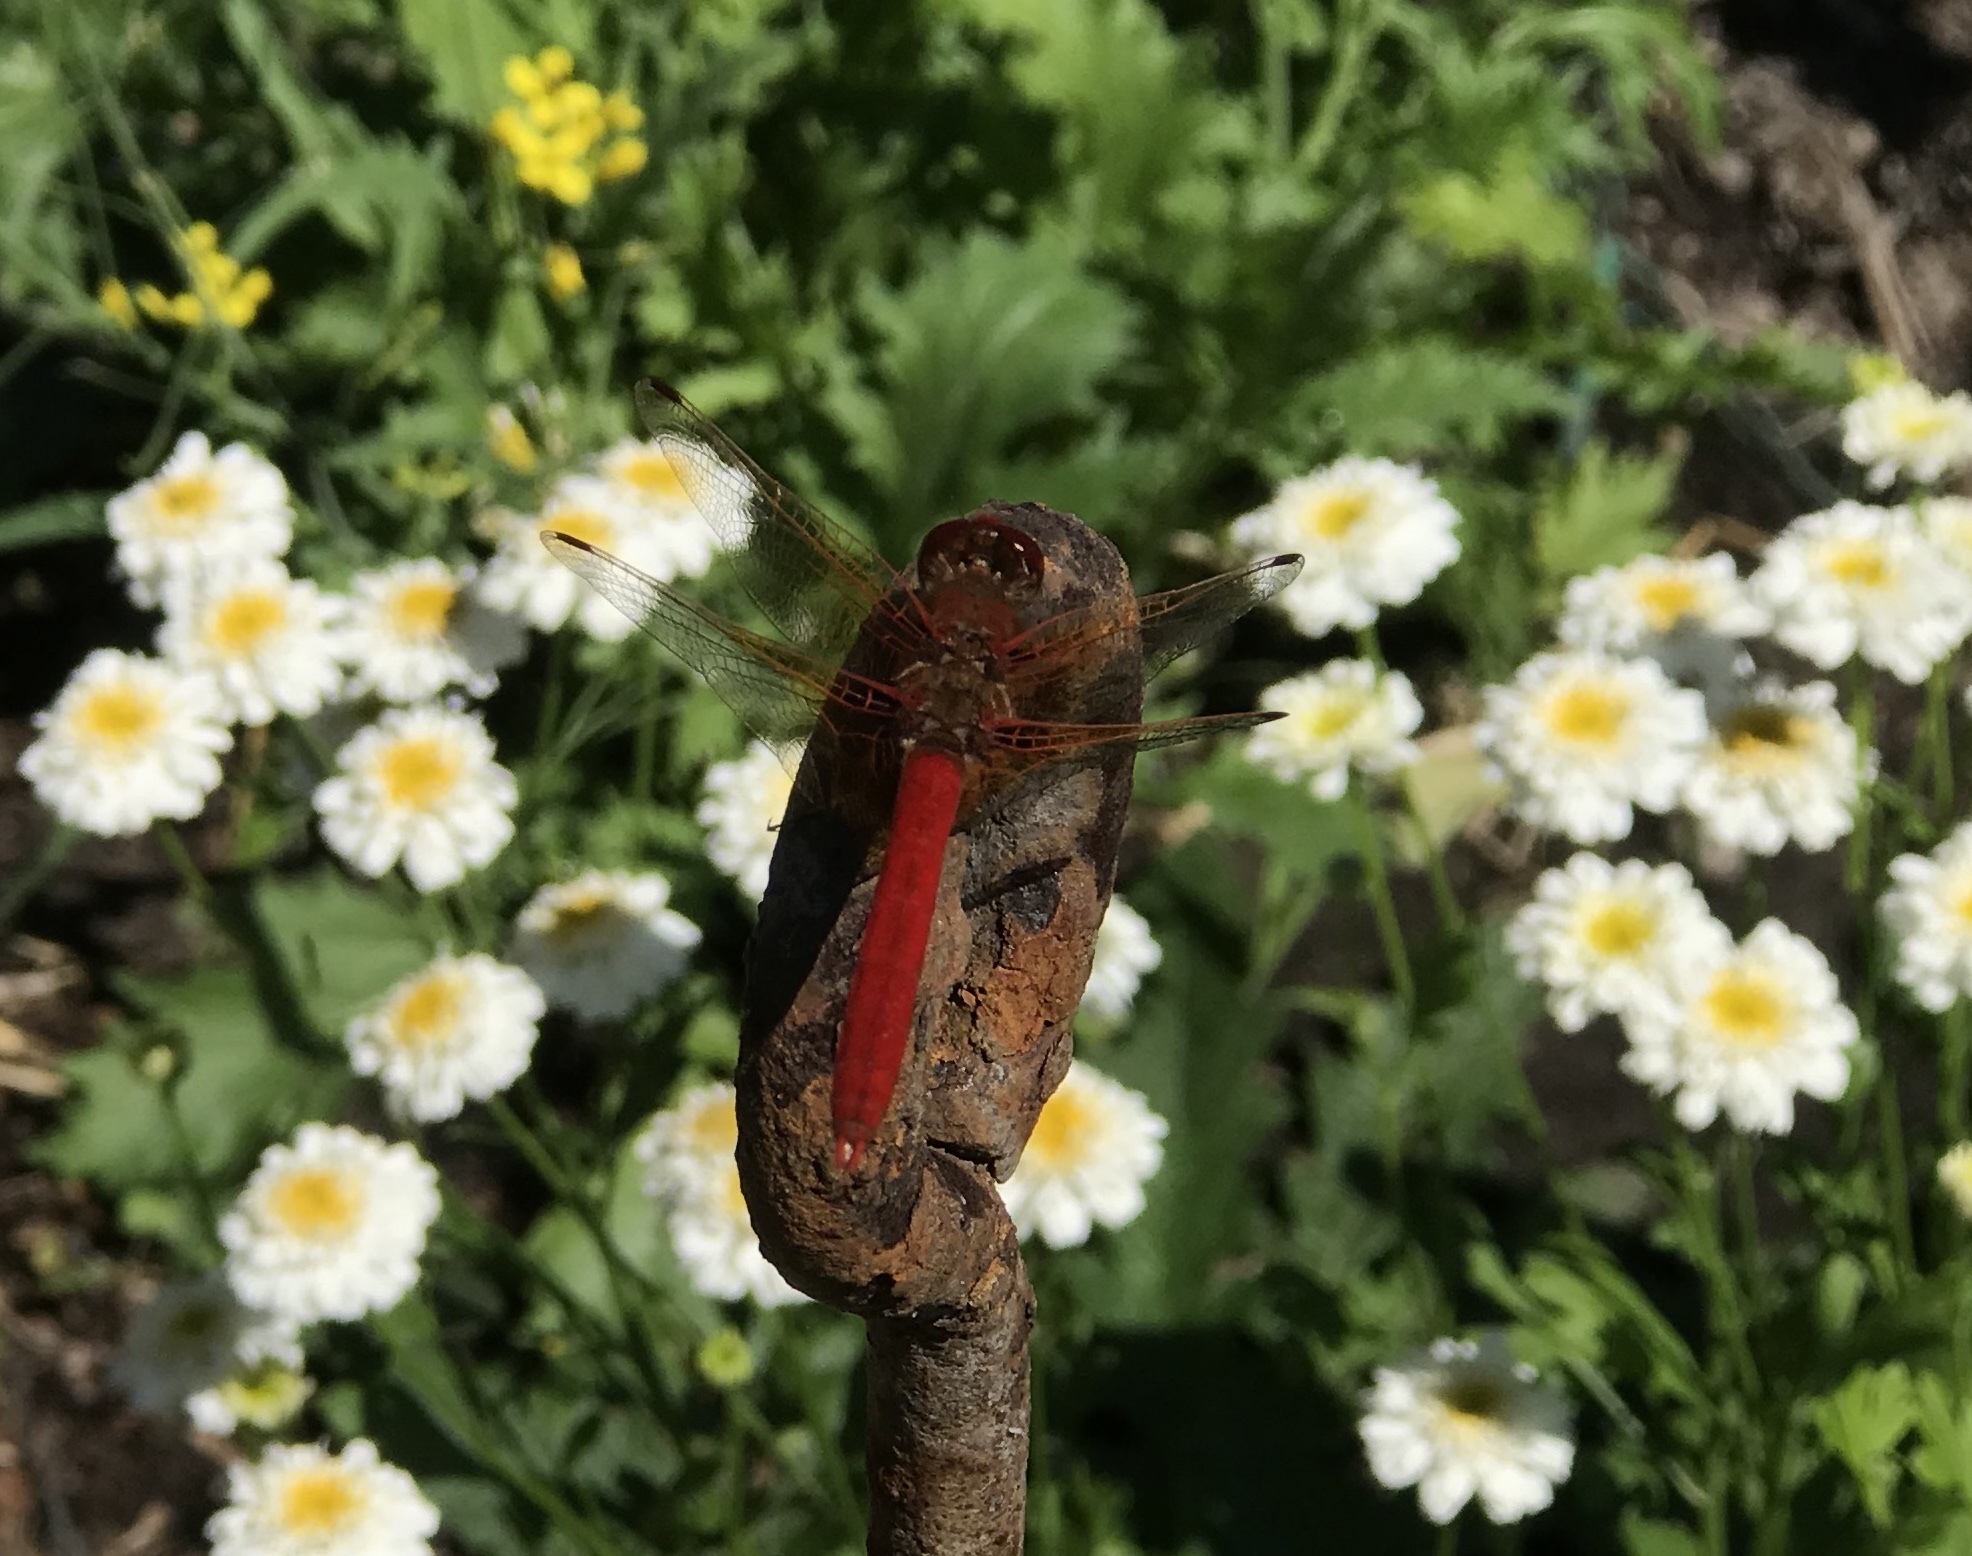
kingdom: Animalia
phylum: Arthropoda
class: Insecta
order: Odonata
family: Libellulidae
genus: Sympetrum
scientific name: Sympetrum illotum
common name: Cardinal meadowhawk
